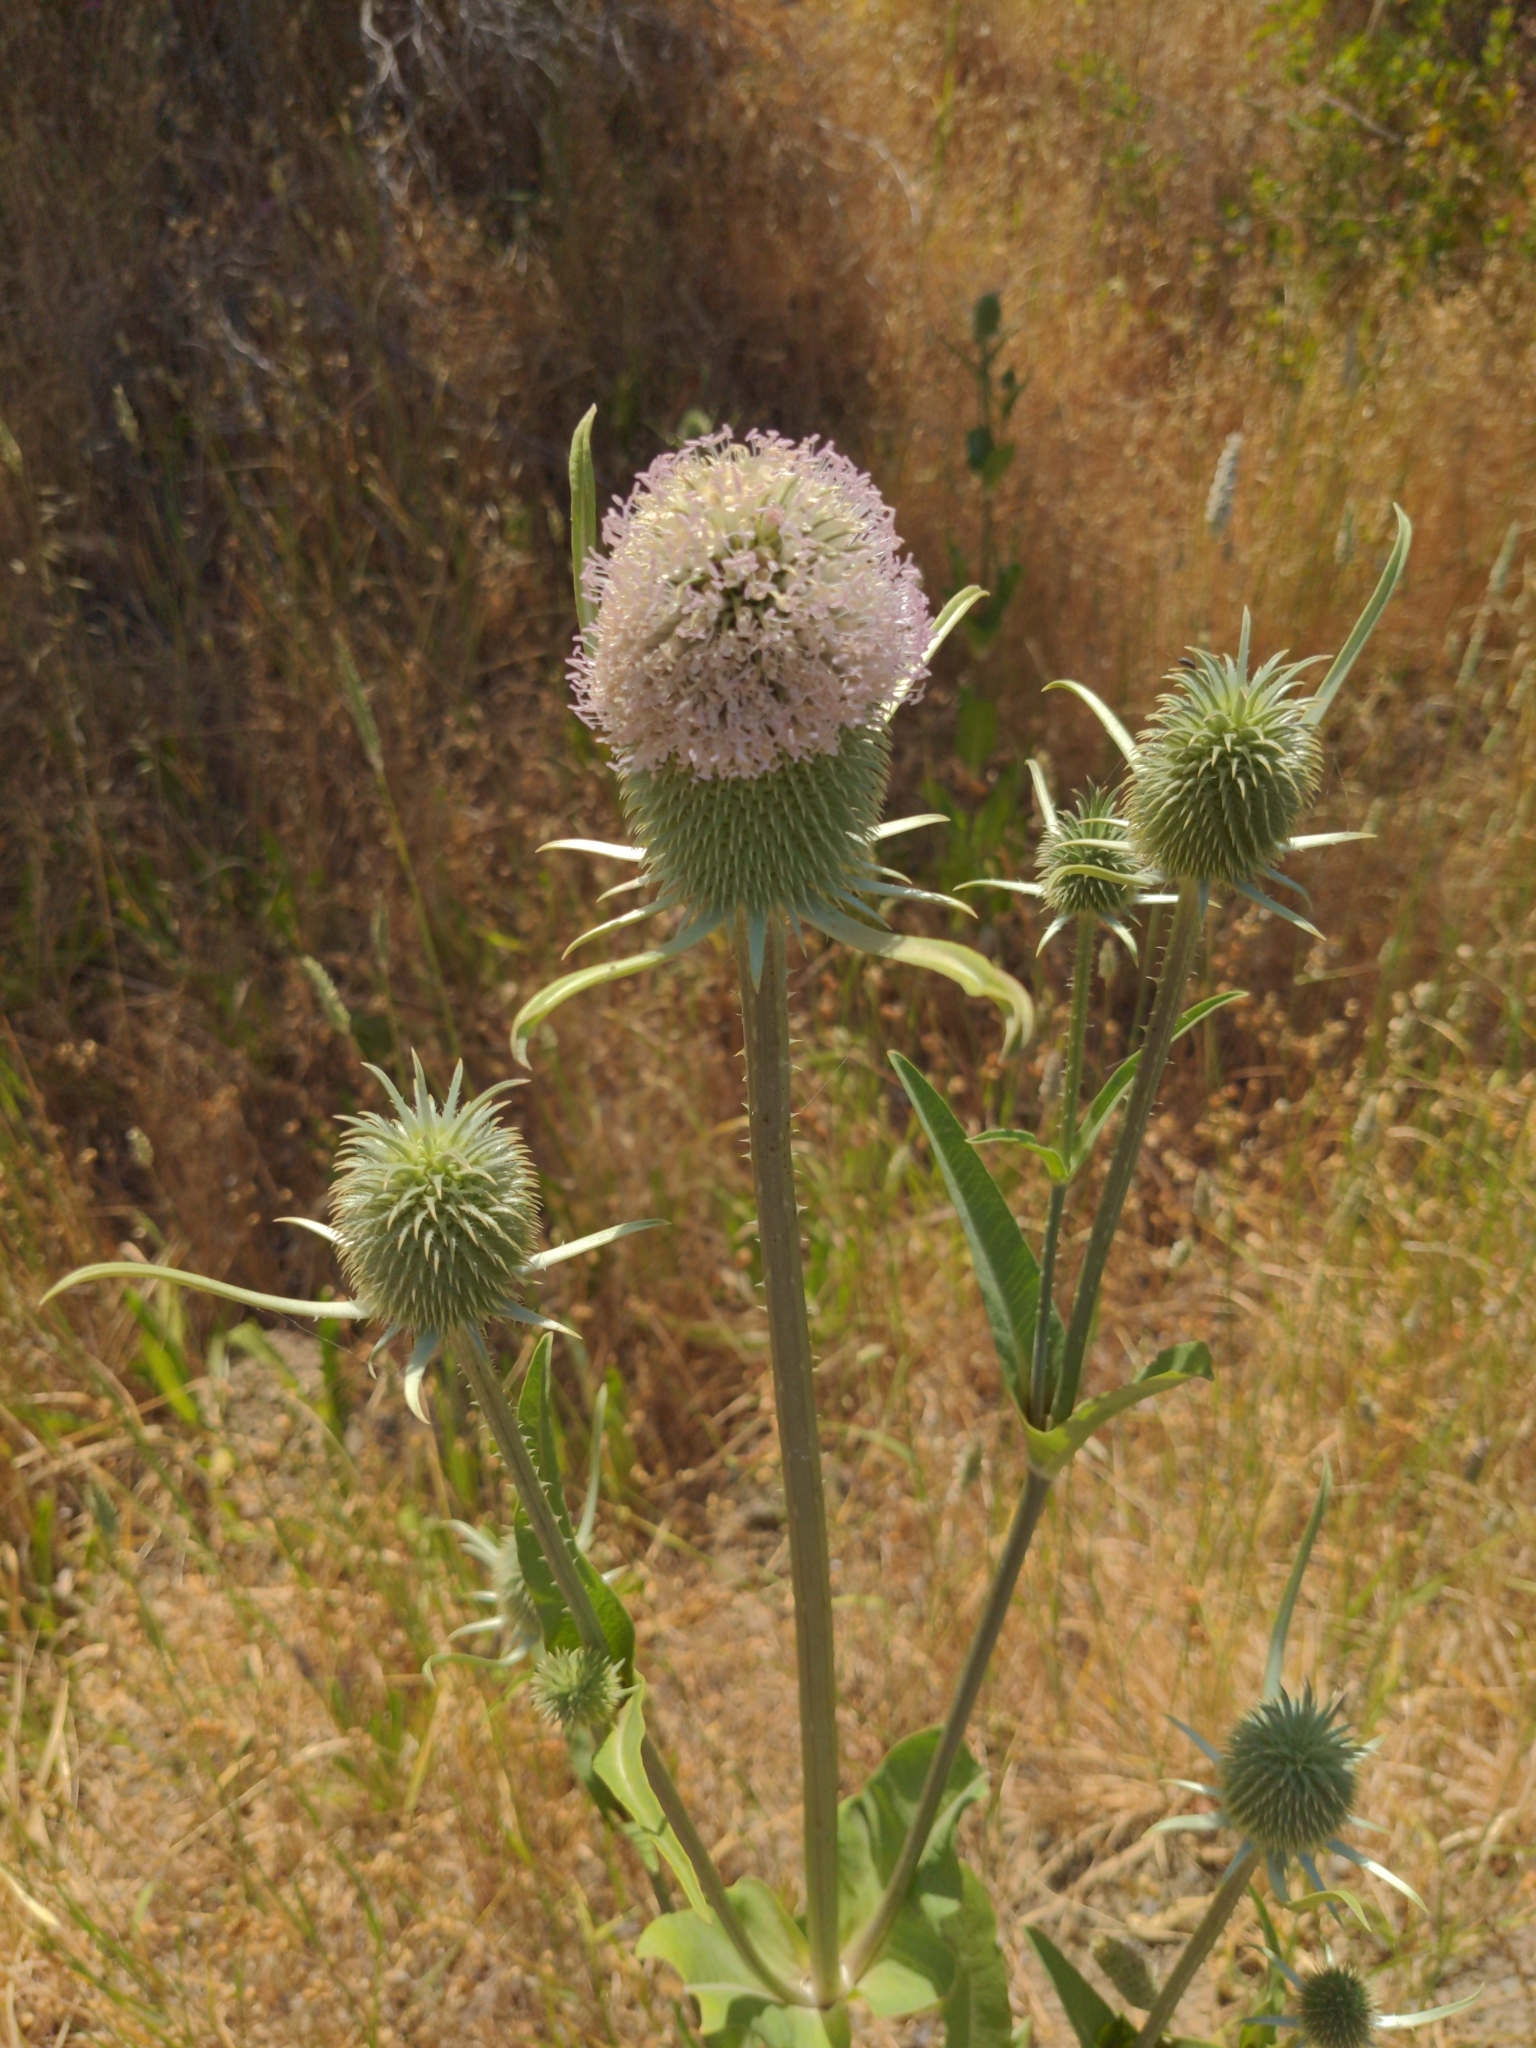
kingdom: Plantae
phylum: Tracheophyta
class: Magnoliopsida
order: Dipsacales
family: Caprifoliaceae
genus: Dipsacus
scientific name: Dipsacus sativus
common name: Fuller's teasel
